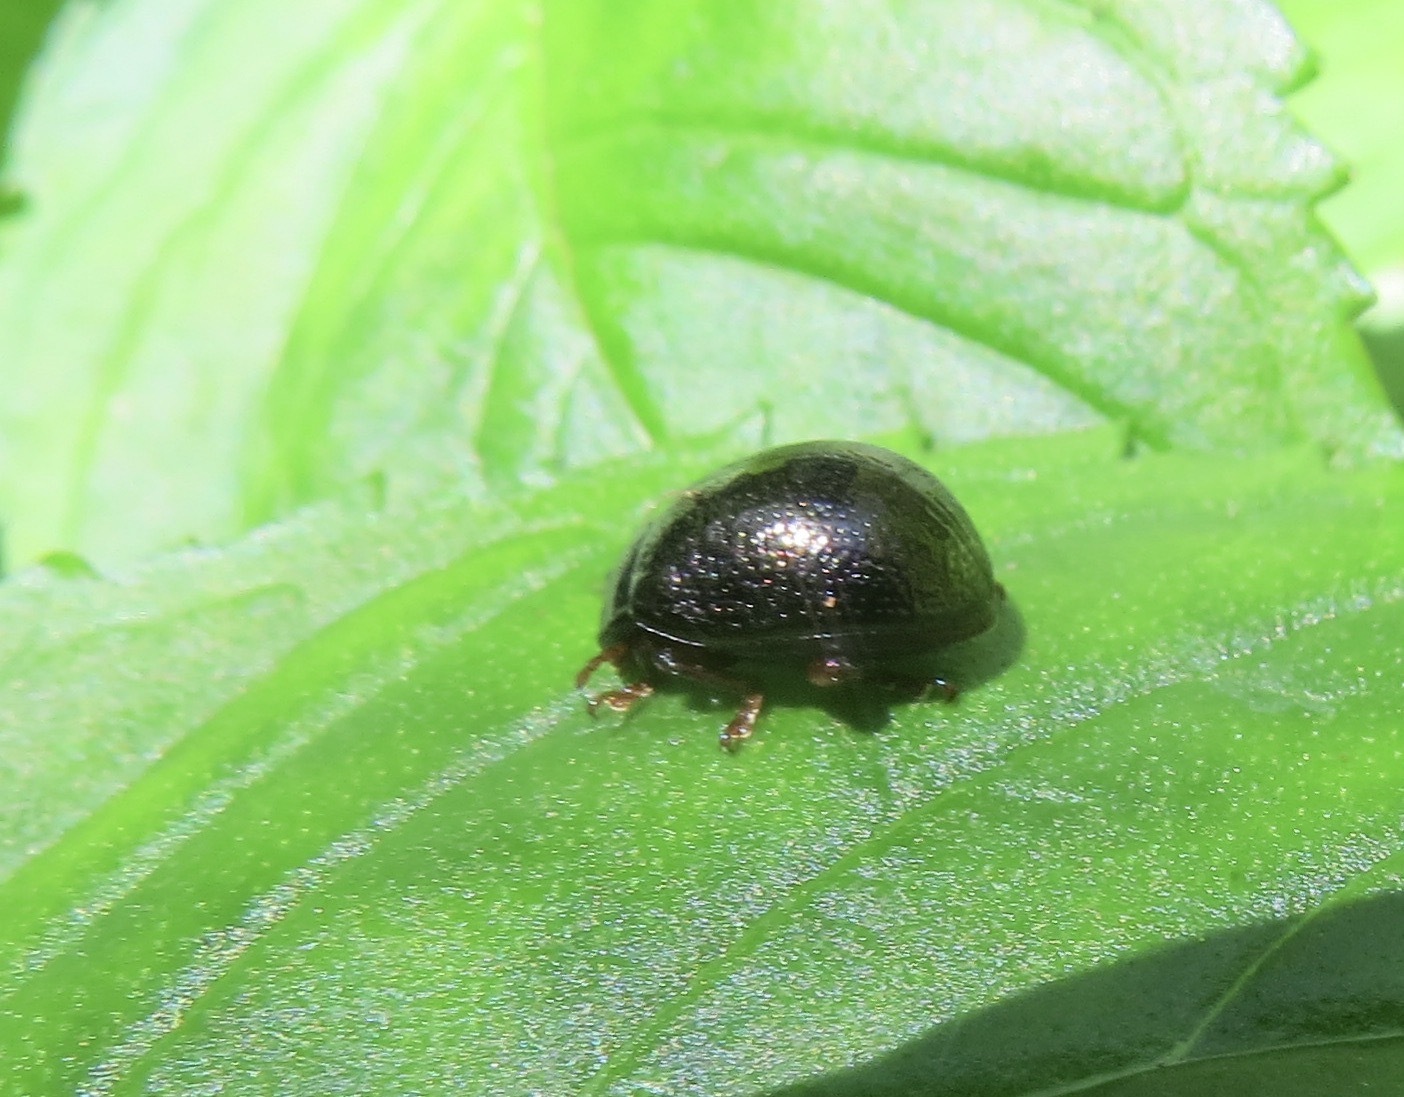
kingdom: Animalia
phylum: Arthropoda
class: Insecta
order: Coleoptera
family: Chrysomelidae
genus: Chrysolina
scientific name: Chrysolina bankii
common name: Leaf beetle
